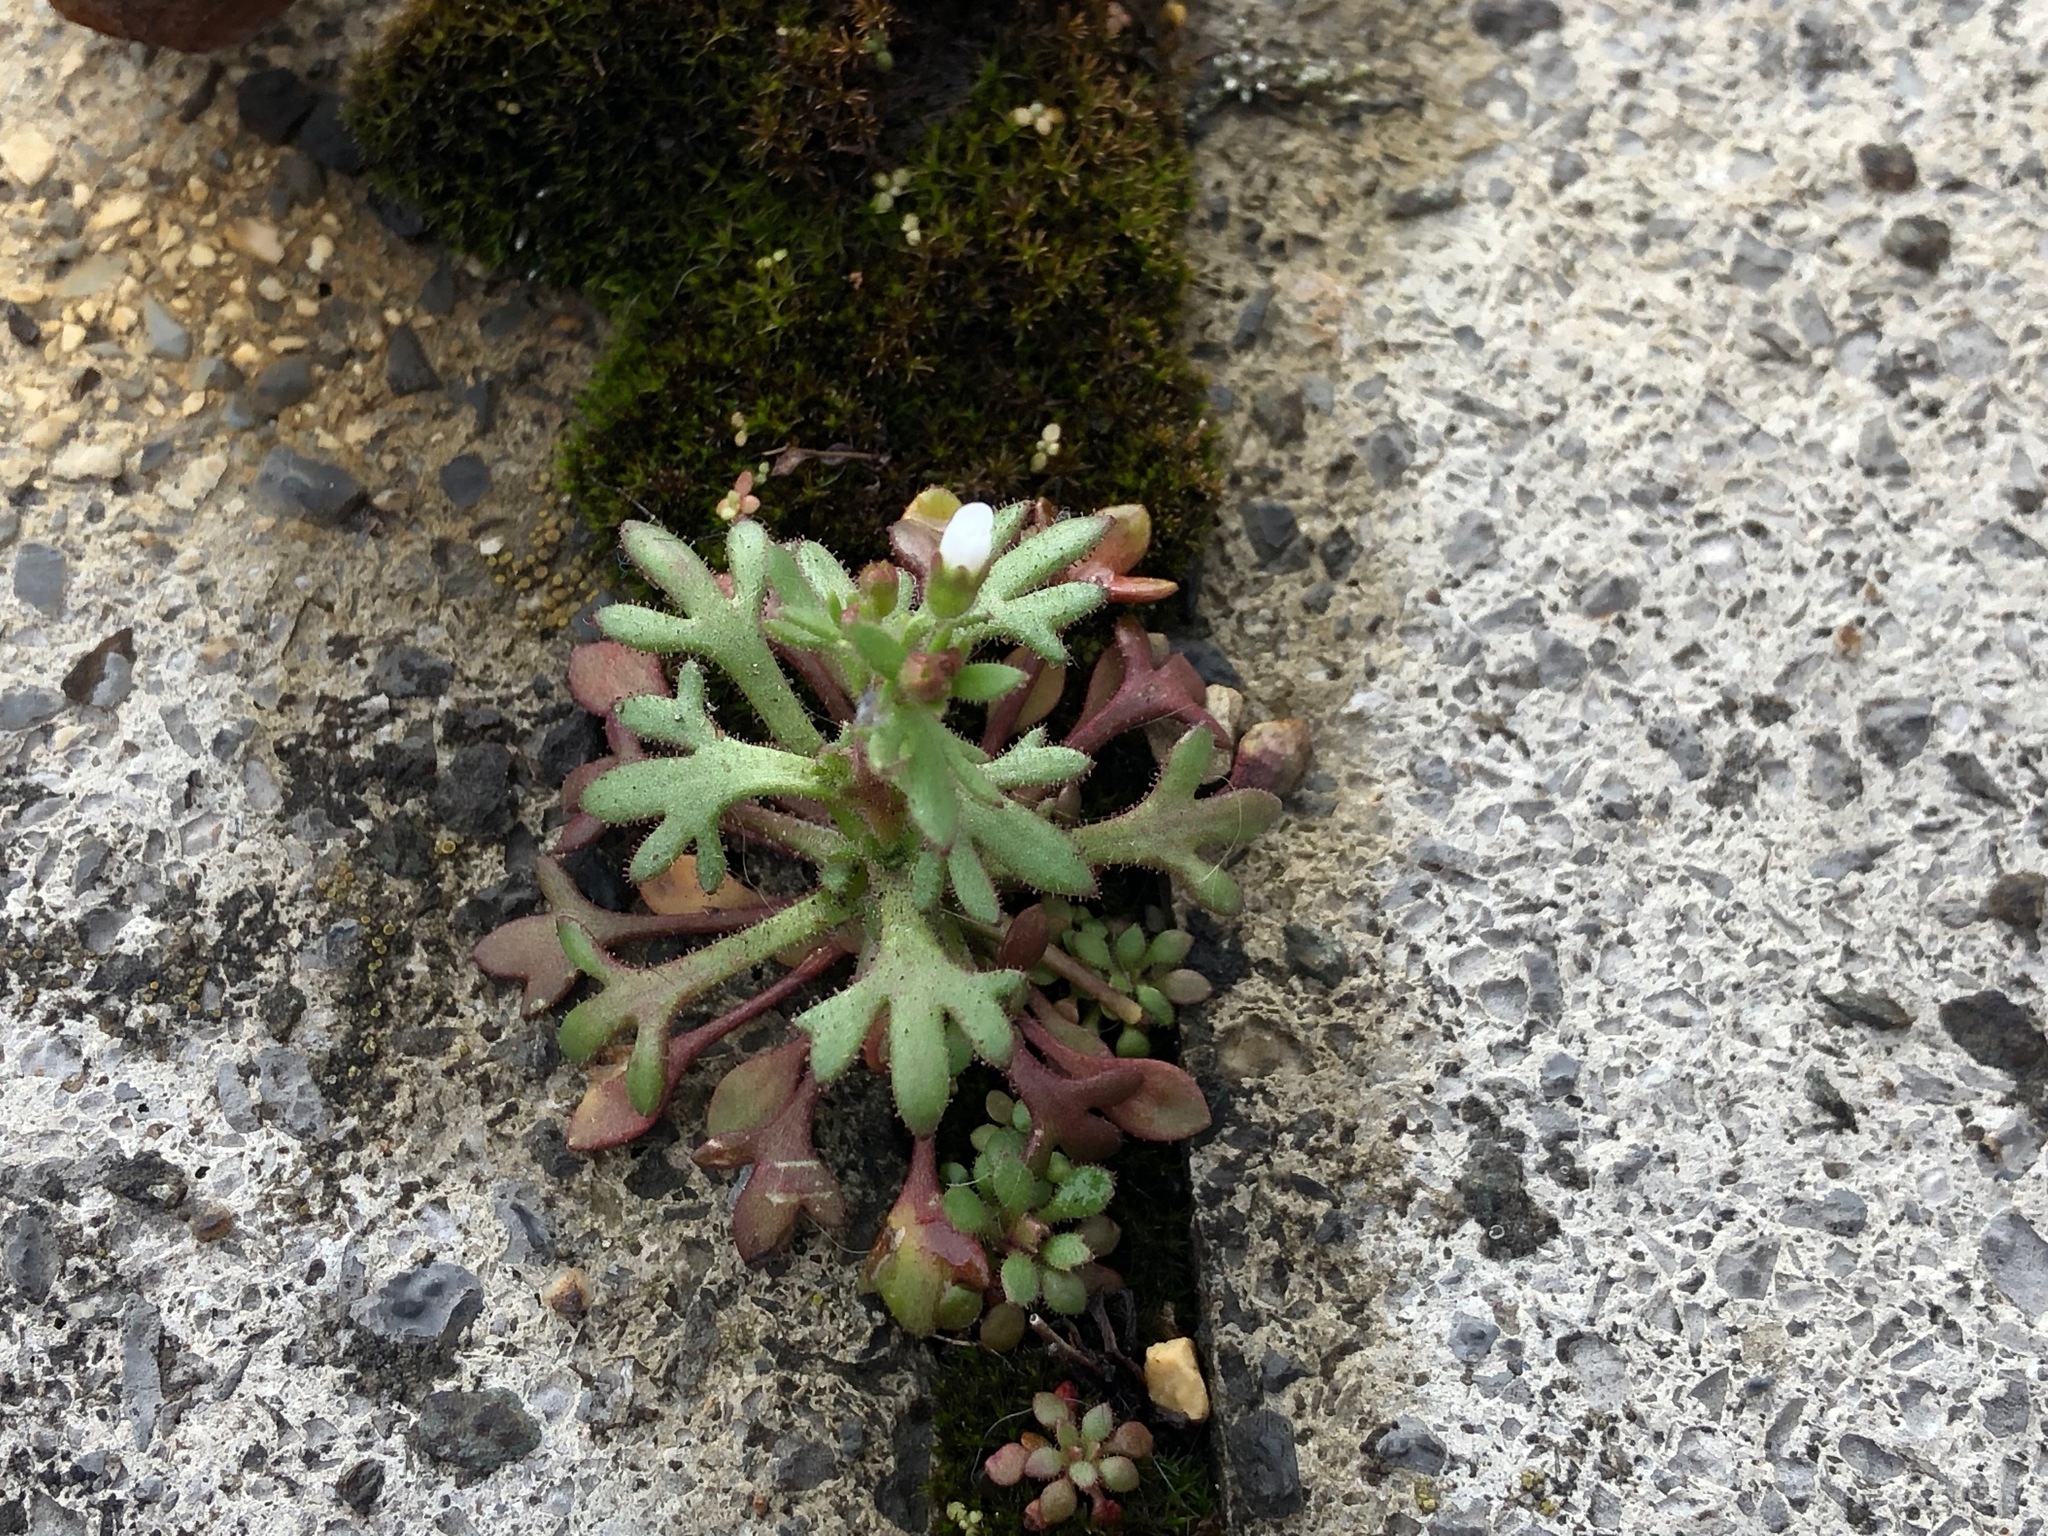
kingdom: Plantae
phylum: Tracheophyta
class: Magnoliopsida
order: Saxifragales
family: Saxifragaceae
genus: Saxifraga
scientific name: Saxifraga tridactylites
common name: Rue-leaved saxifrage
